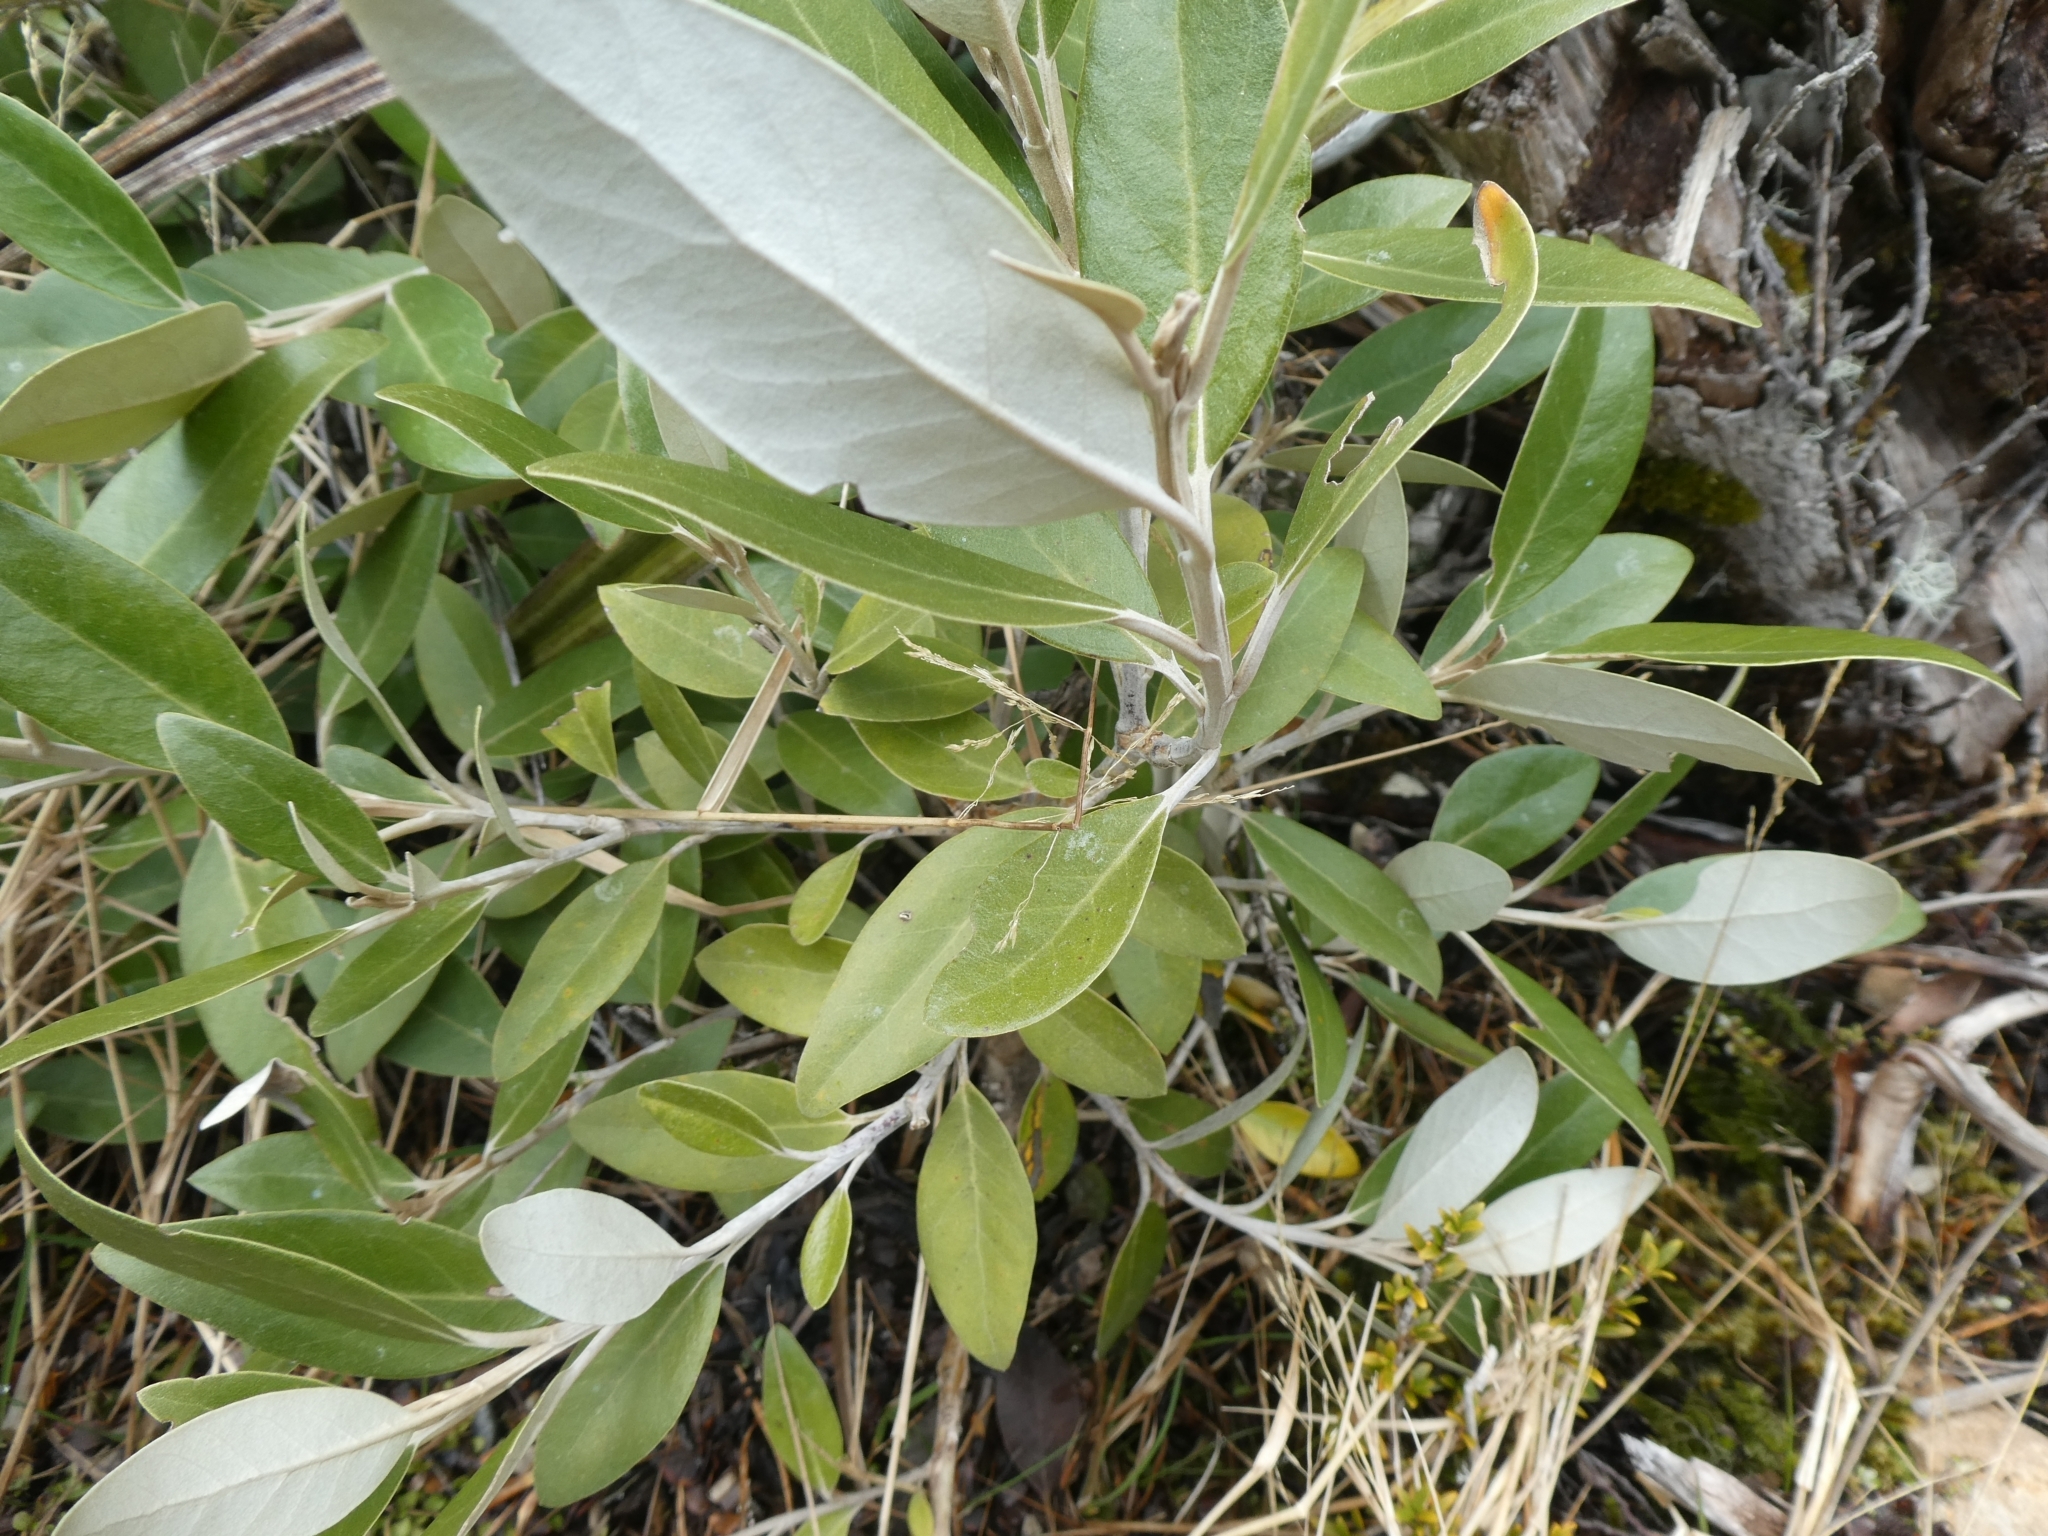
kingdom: Plantae
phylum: Tracheophyta
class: Magnoliopsida
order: Asterales
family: Asteraceae
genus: Olearia
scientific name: Olearia avicenniifolia
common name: Mangrove-leaf daisybush
